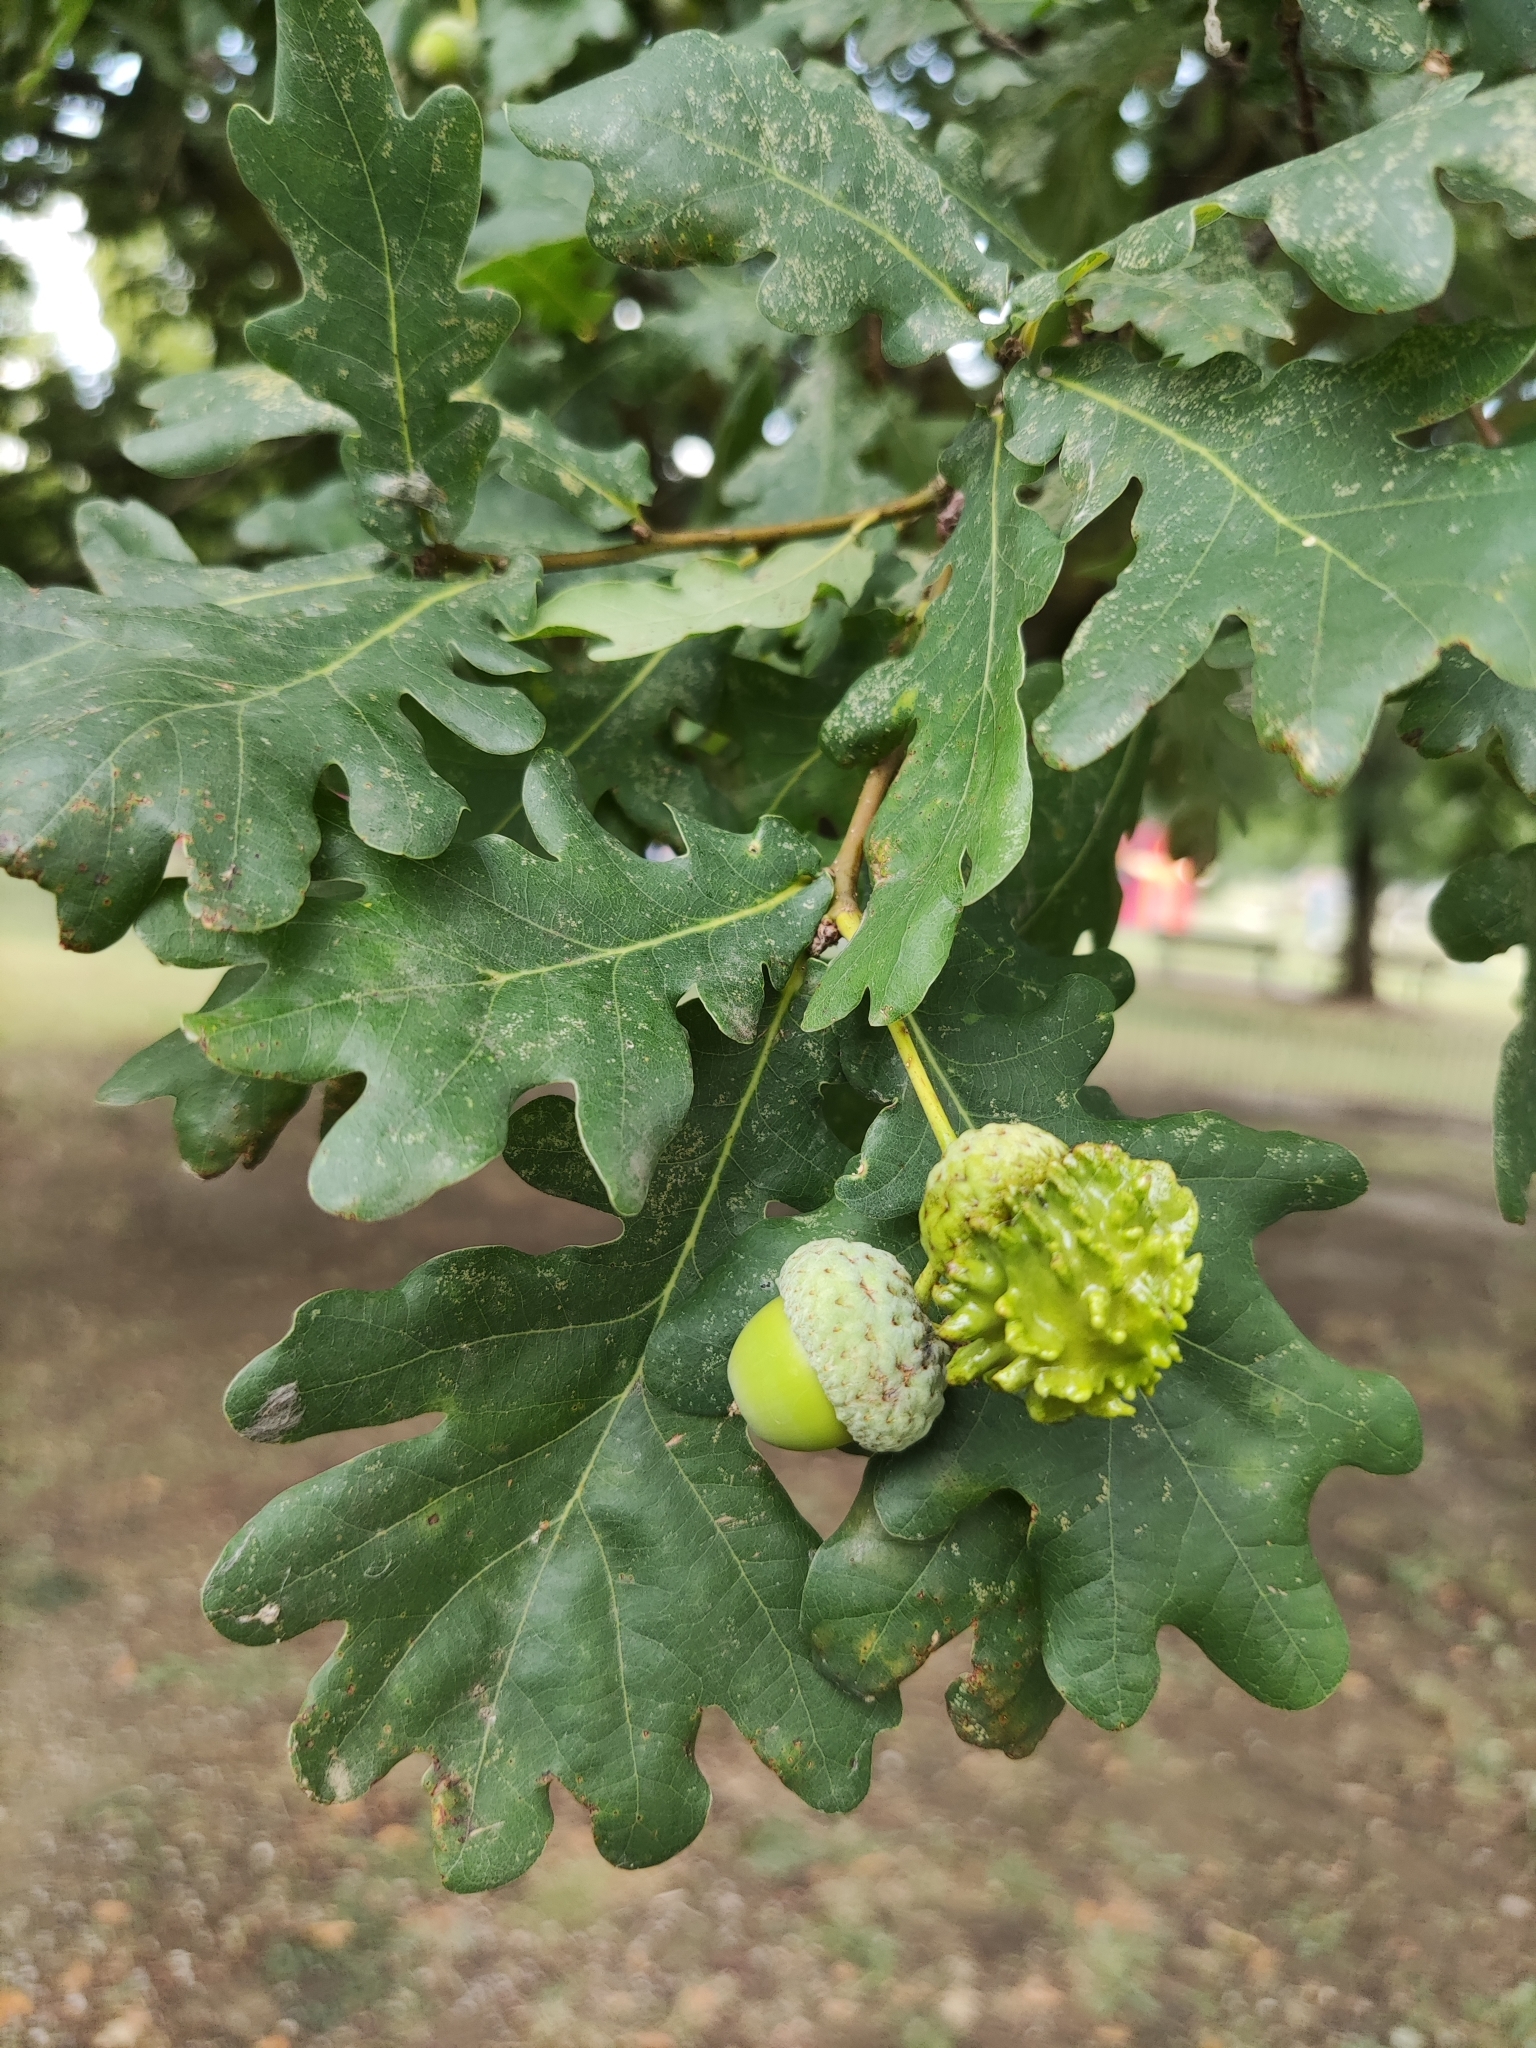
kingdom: Animalia
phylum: Arthropoda
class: Insecta
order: Hymenoptera
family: Cynipidae
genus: Andricus
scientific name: Andricus quercuscalicis
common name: Knopper gall
